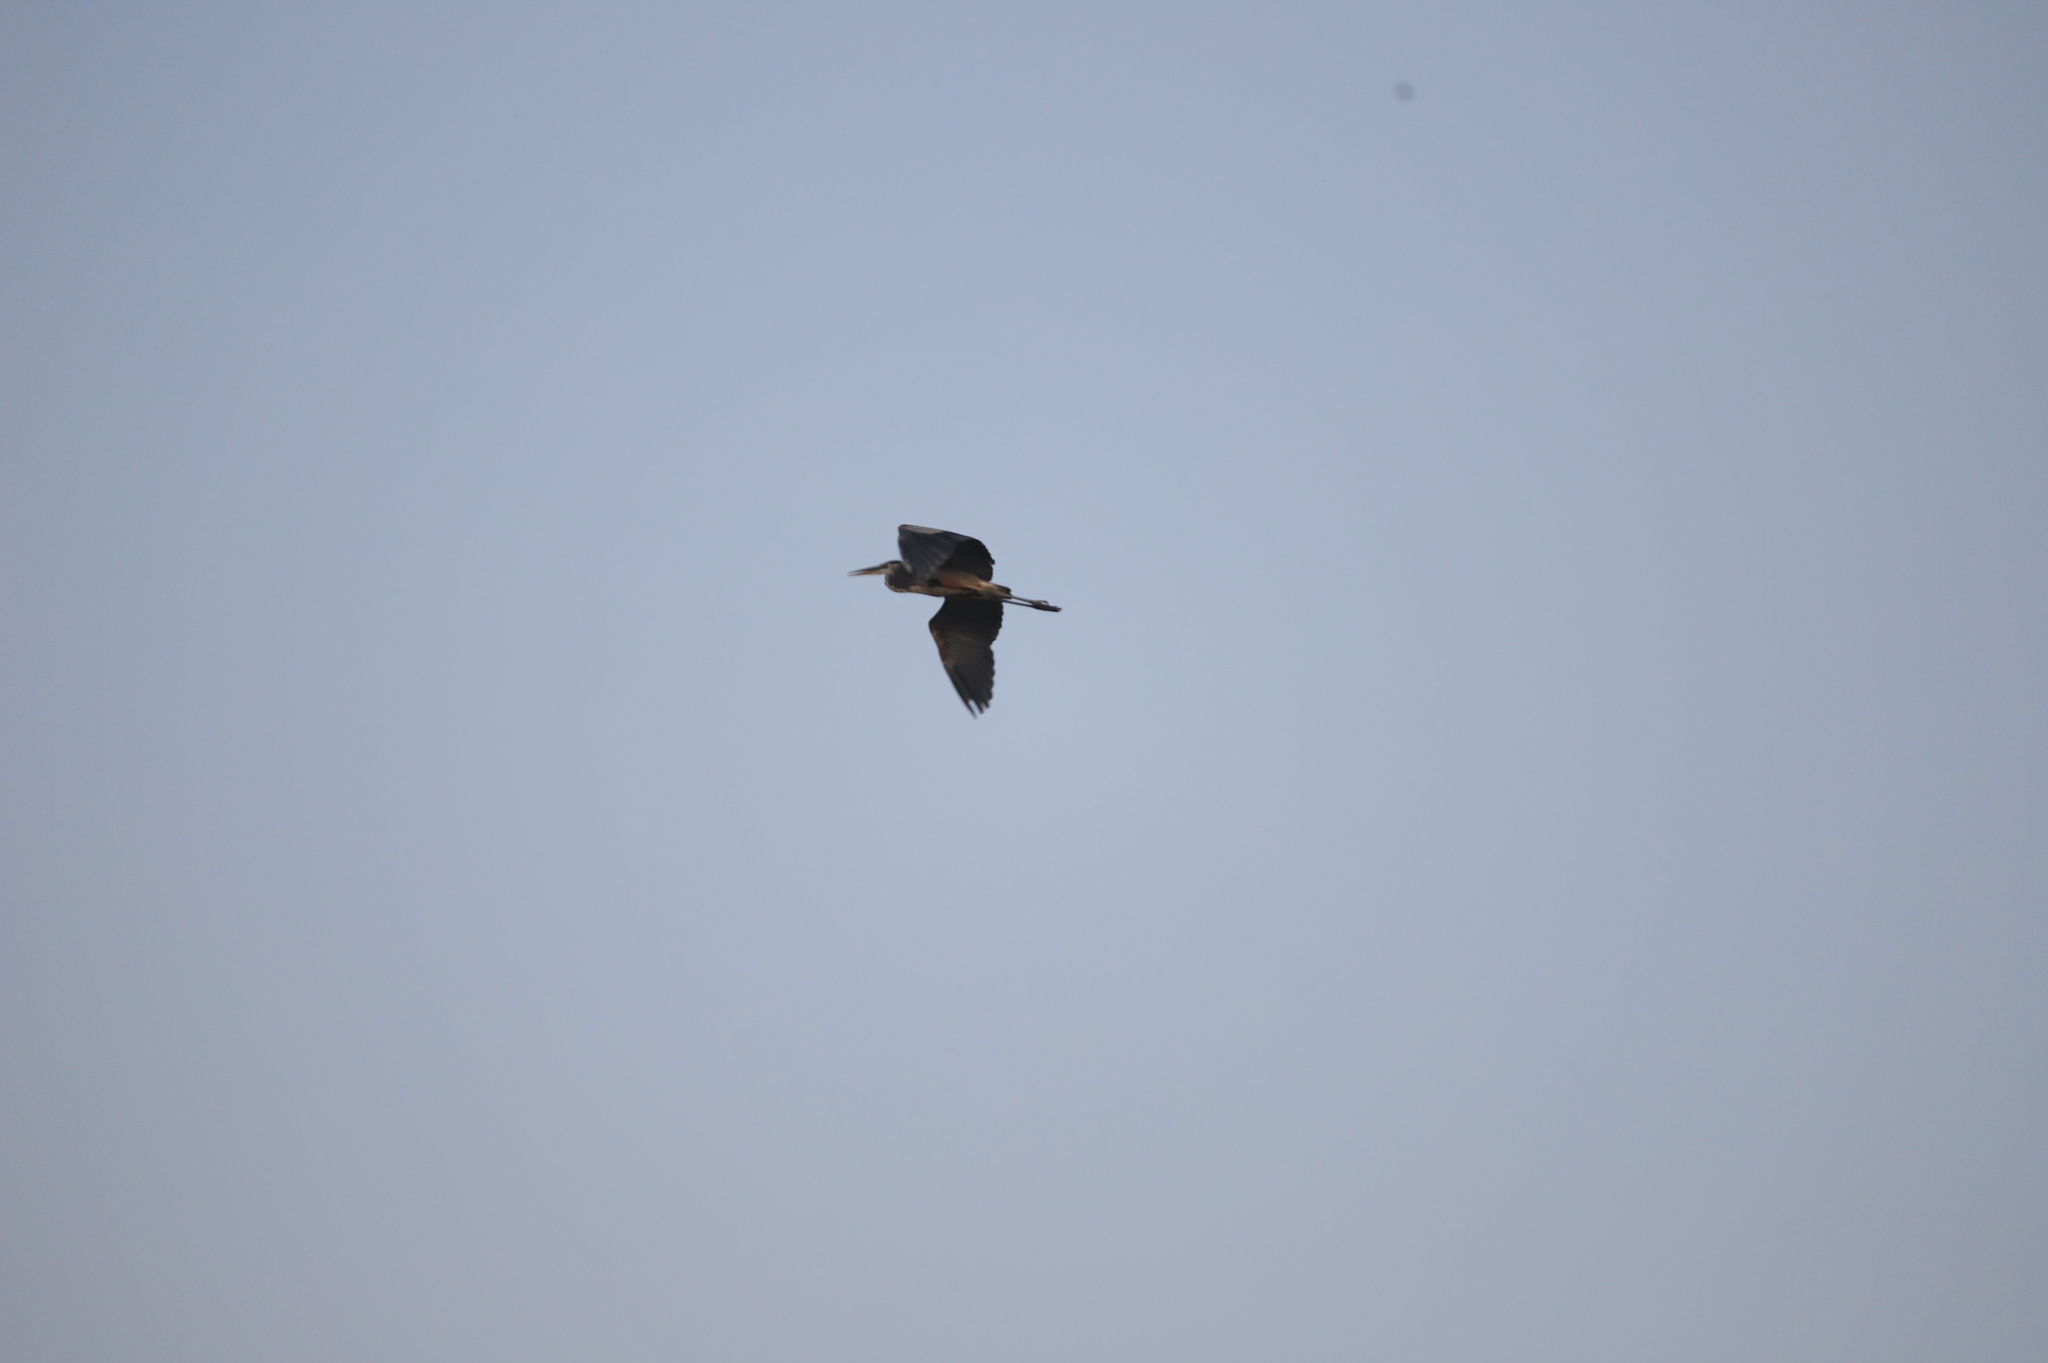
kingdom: Animalia
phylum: Chordata
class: Aves
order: Pelecaniformes
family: Ardeidae
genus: Ardea
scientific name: Ardea herodias
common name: Great blue heron
